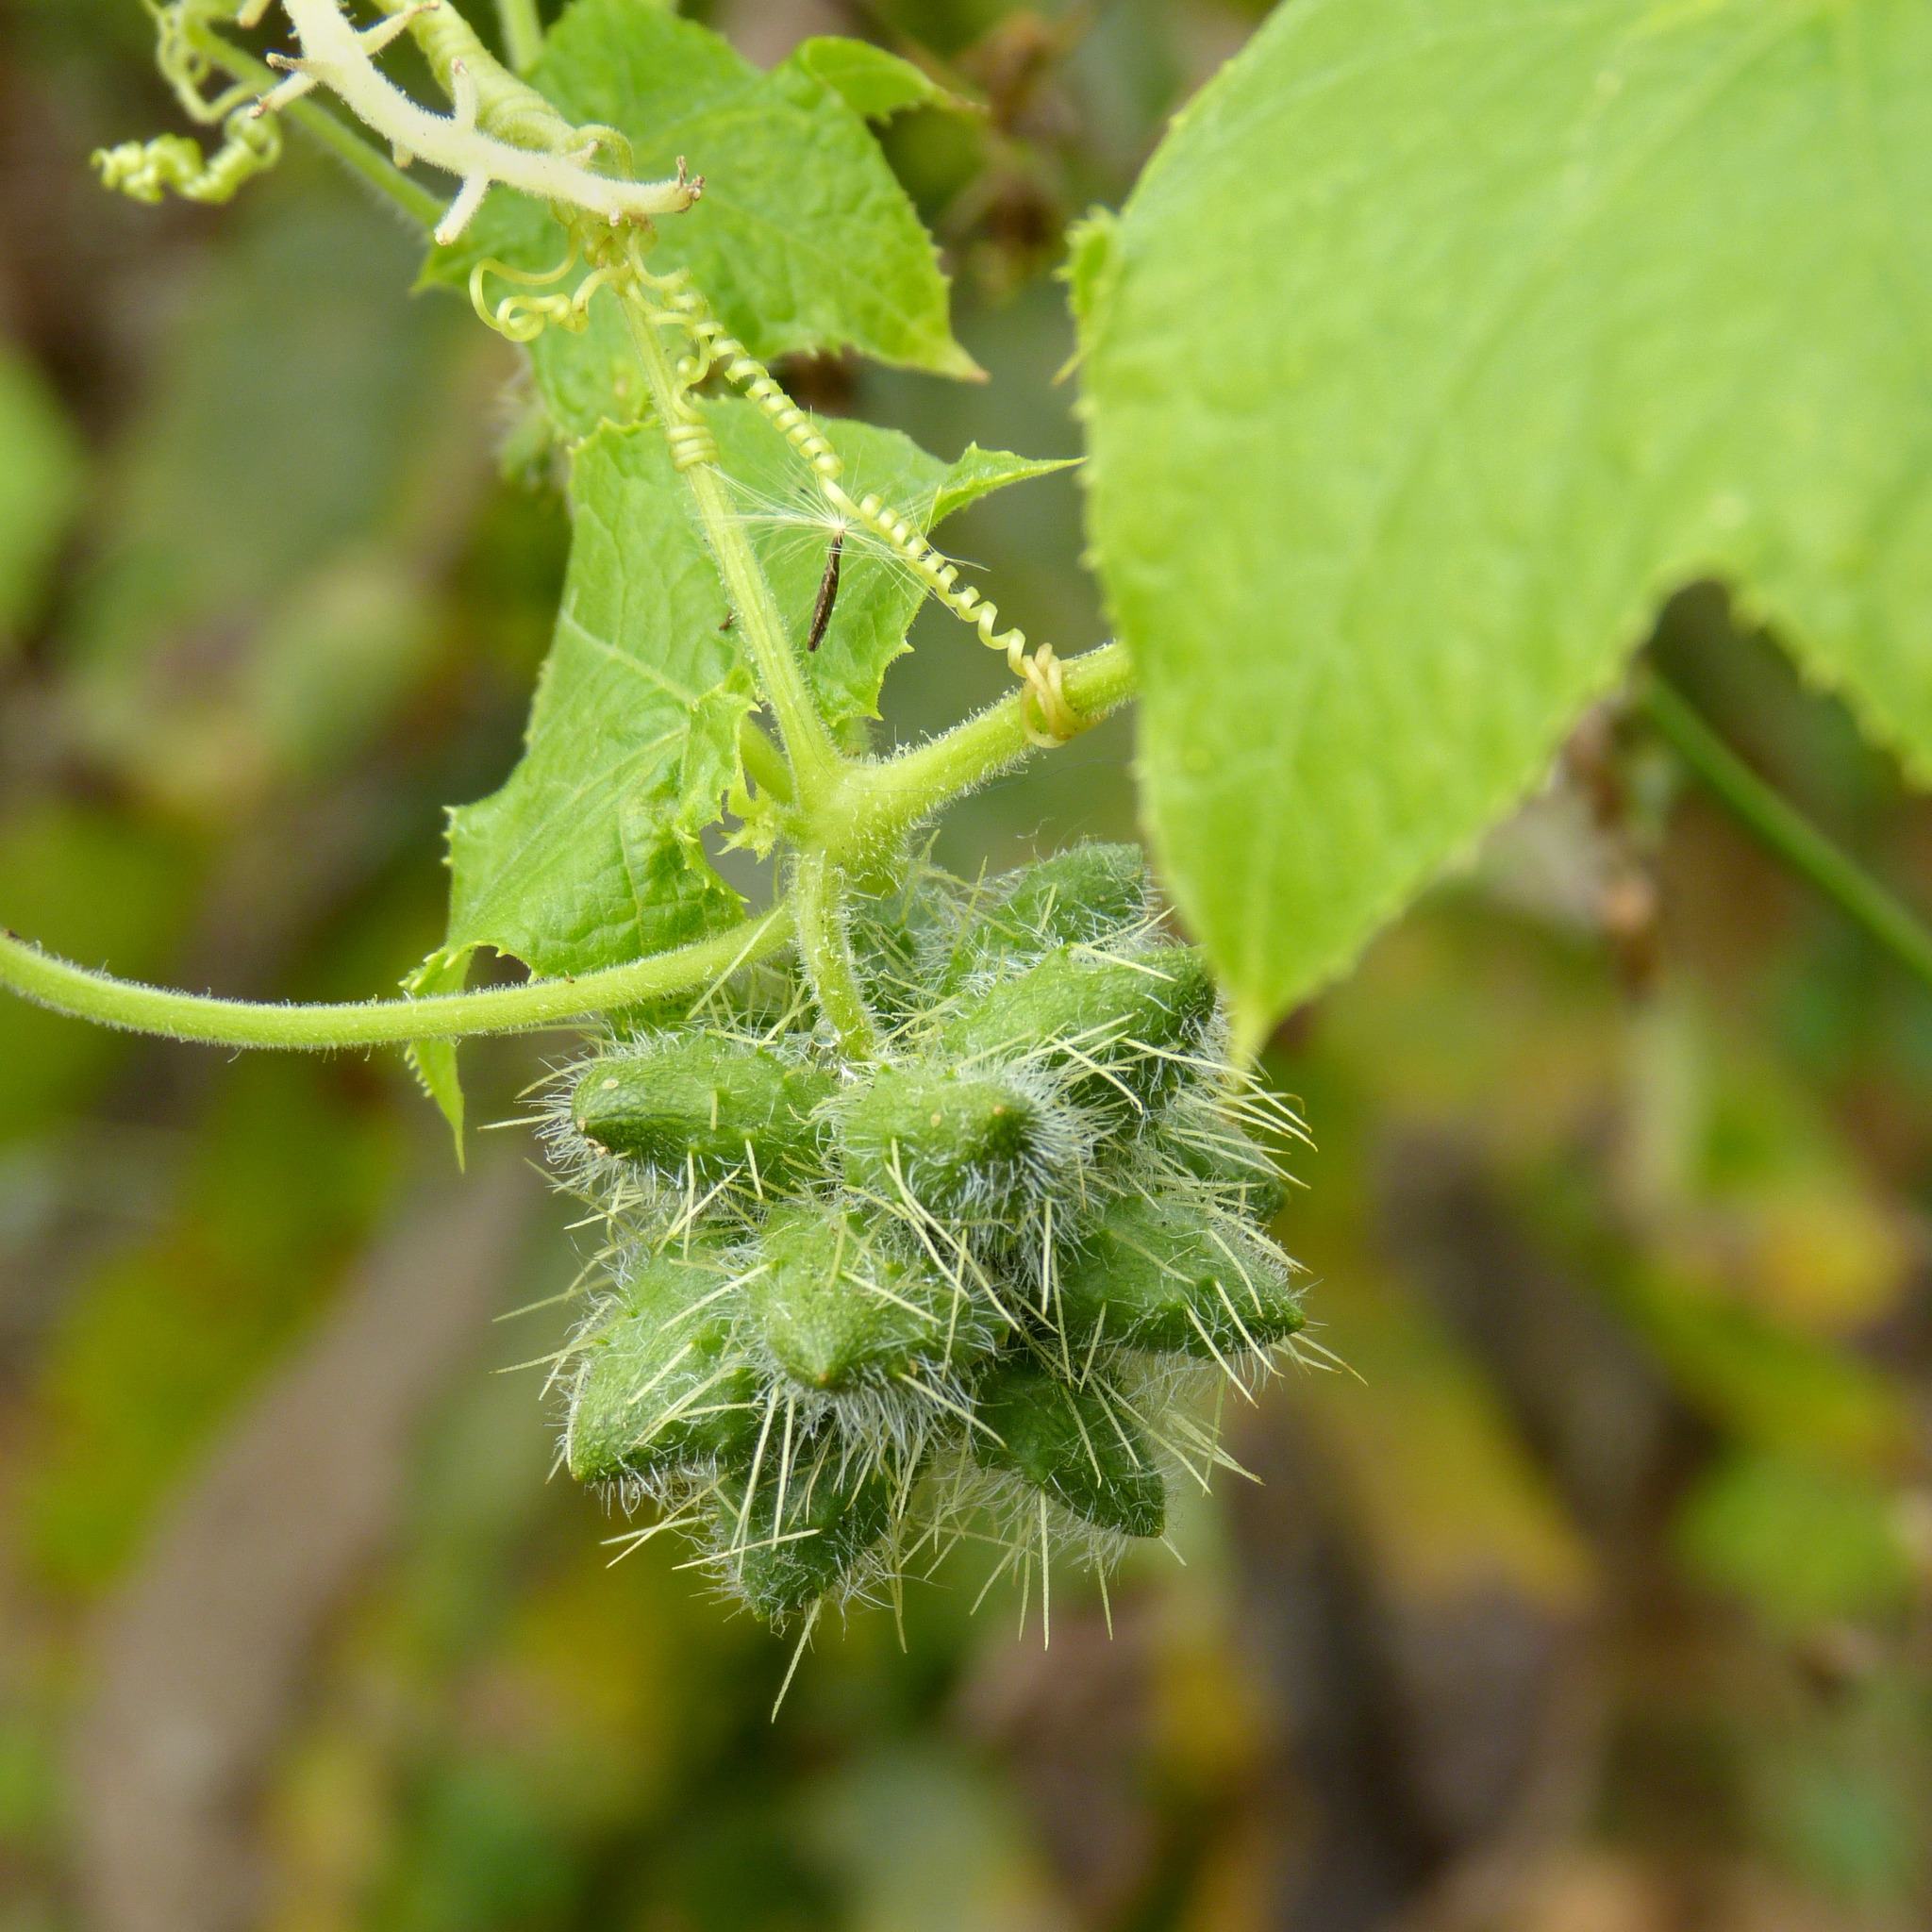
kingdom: Plantae
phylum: Tracheophyta
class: Magnoliopsida
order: Cucurbitales
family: Cucurbitaceae
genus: Sicyos
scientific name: Sicyos angulatus
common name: Angled burr cucumber
